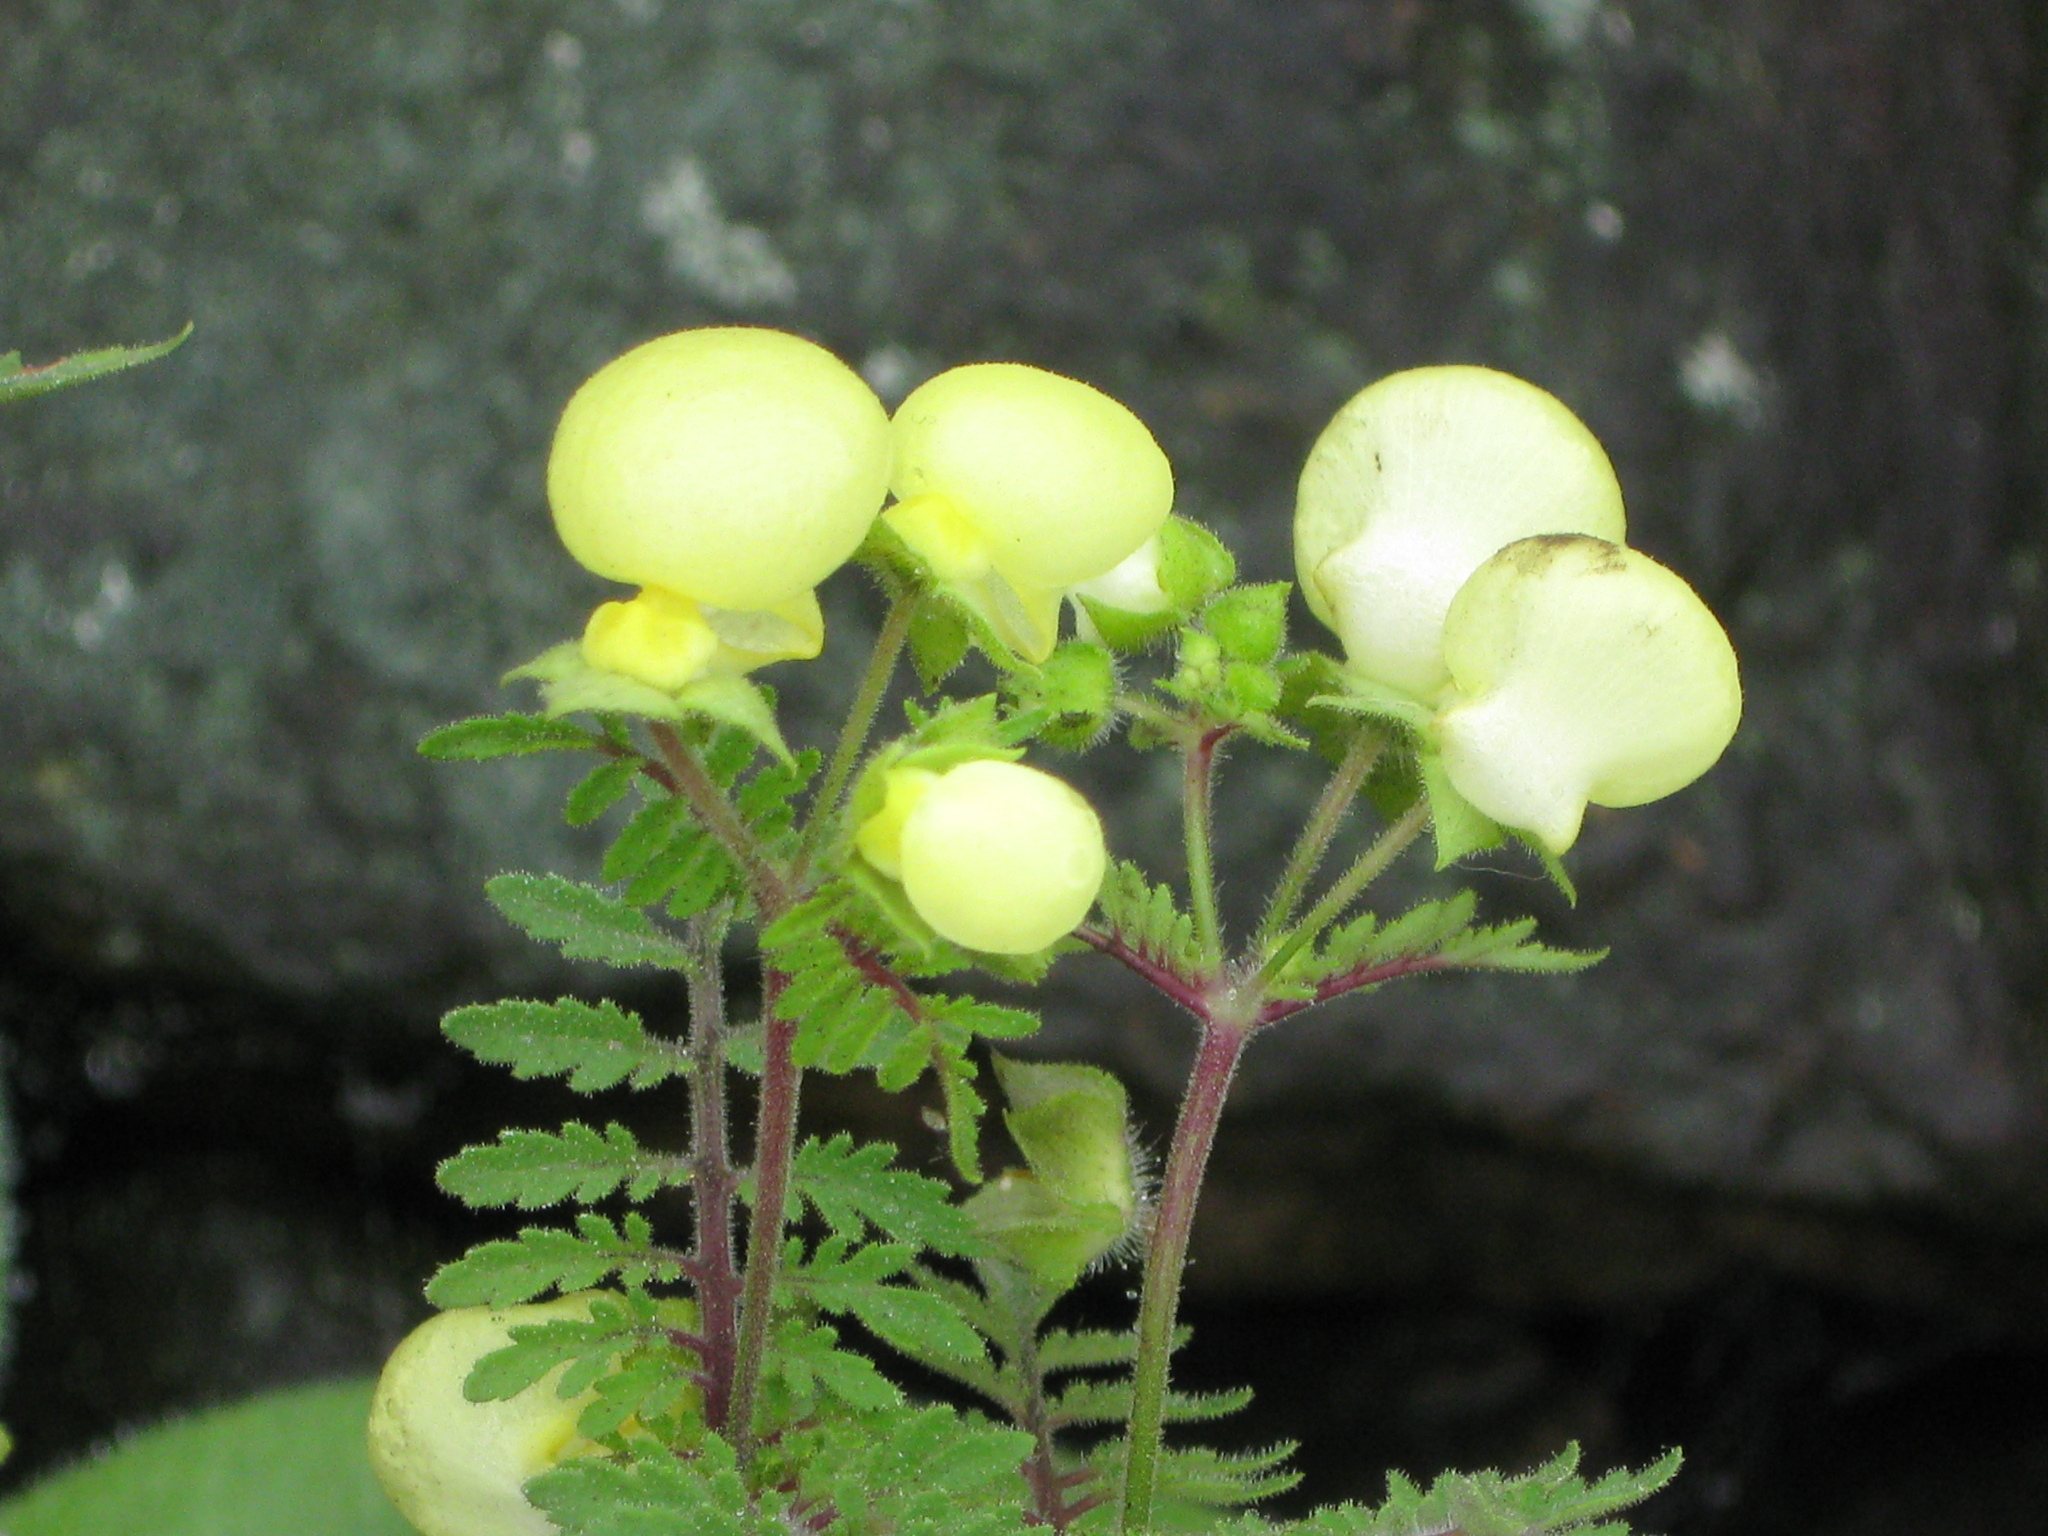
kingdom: Plantae
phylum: Tracheophyta
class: Magnoliopsida
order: Lamiales
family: Calceolariaceae
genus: Calceolaria
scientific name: Calceolaria pinnata
